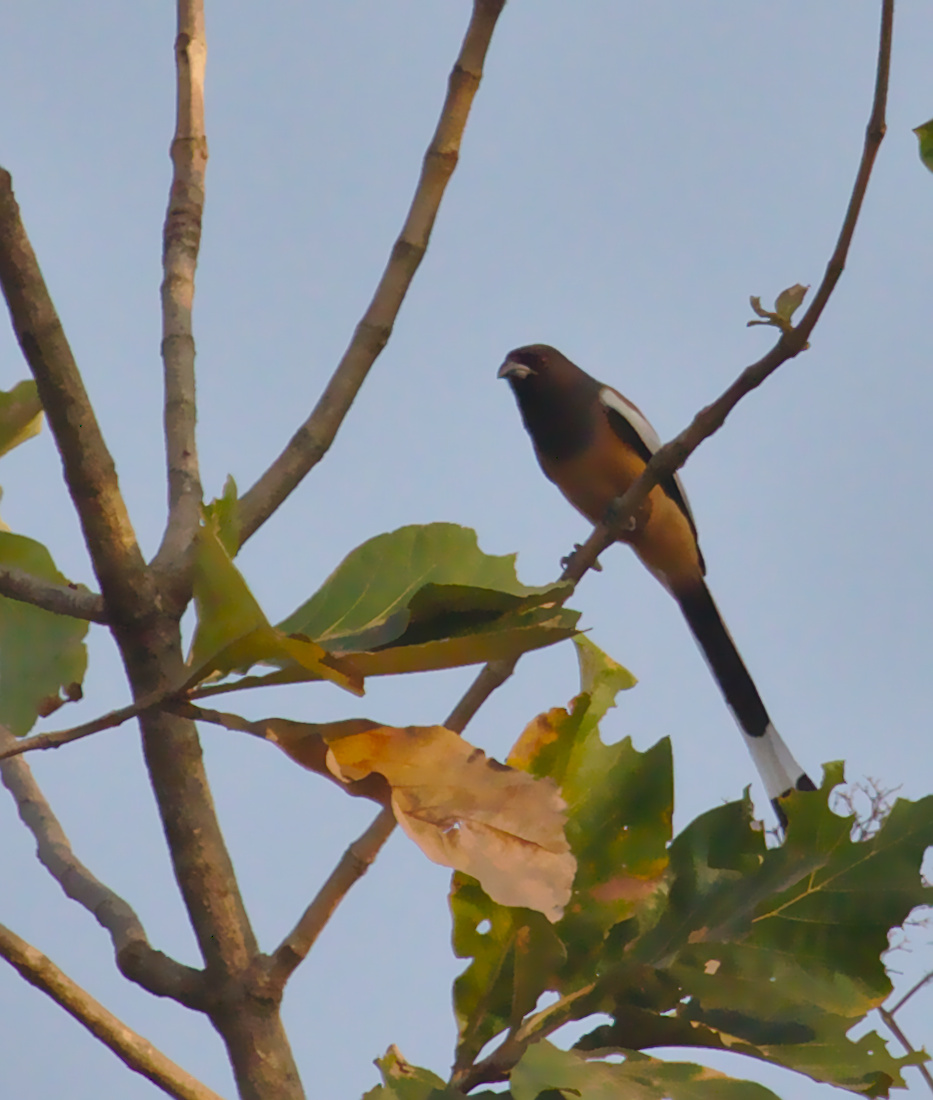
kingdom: Animalia
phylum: Chordata
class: Aves
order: Passeriformes
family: Corvidae
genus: Dendrocitta
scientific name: Dendrocitta vagabunda
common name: Rufous treepie
